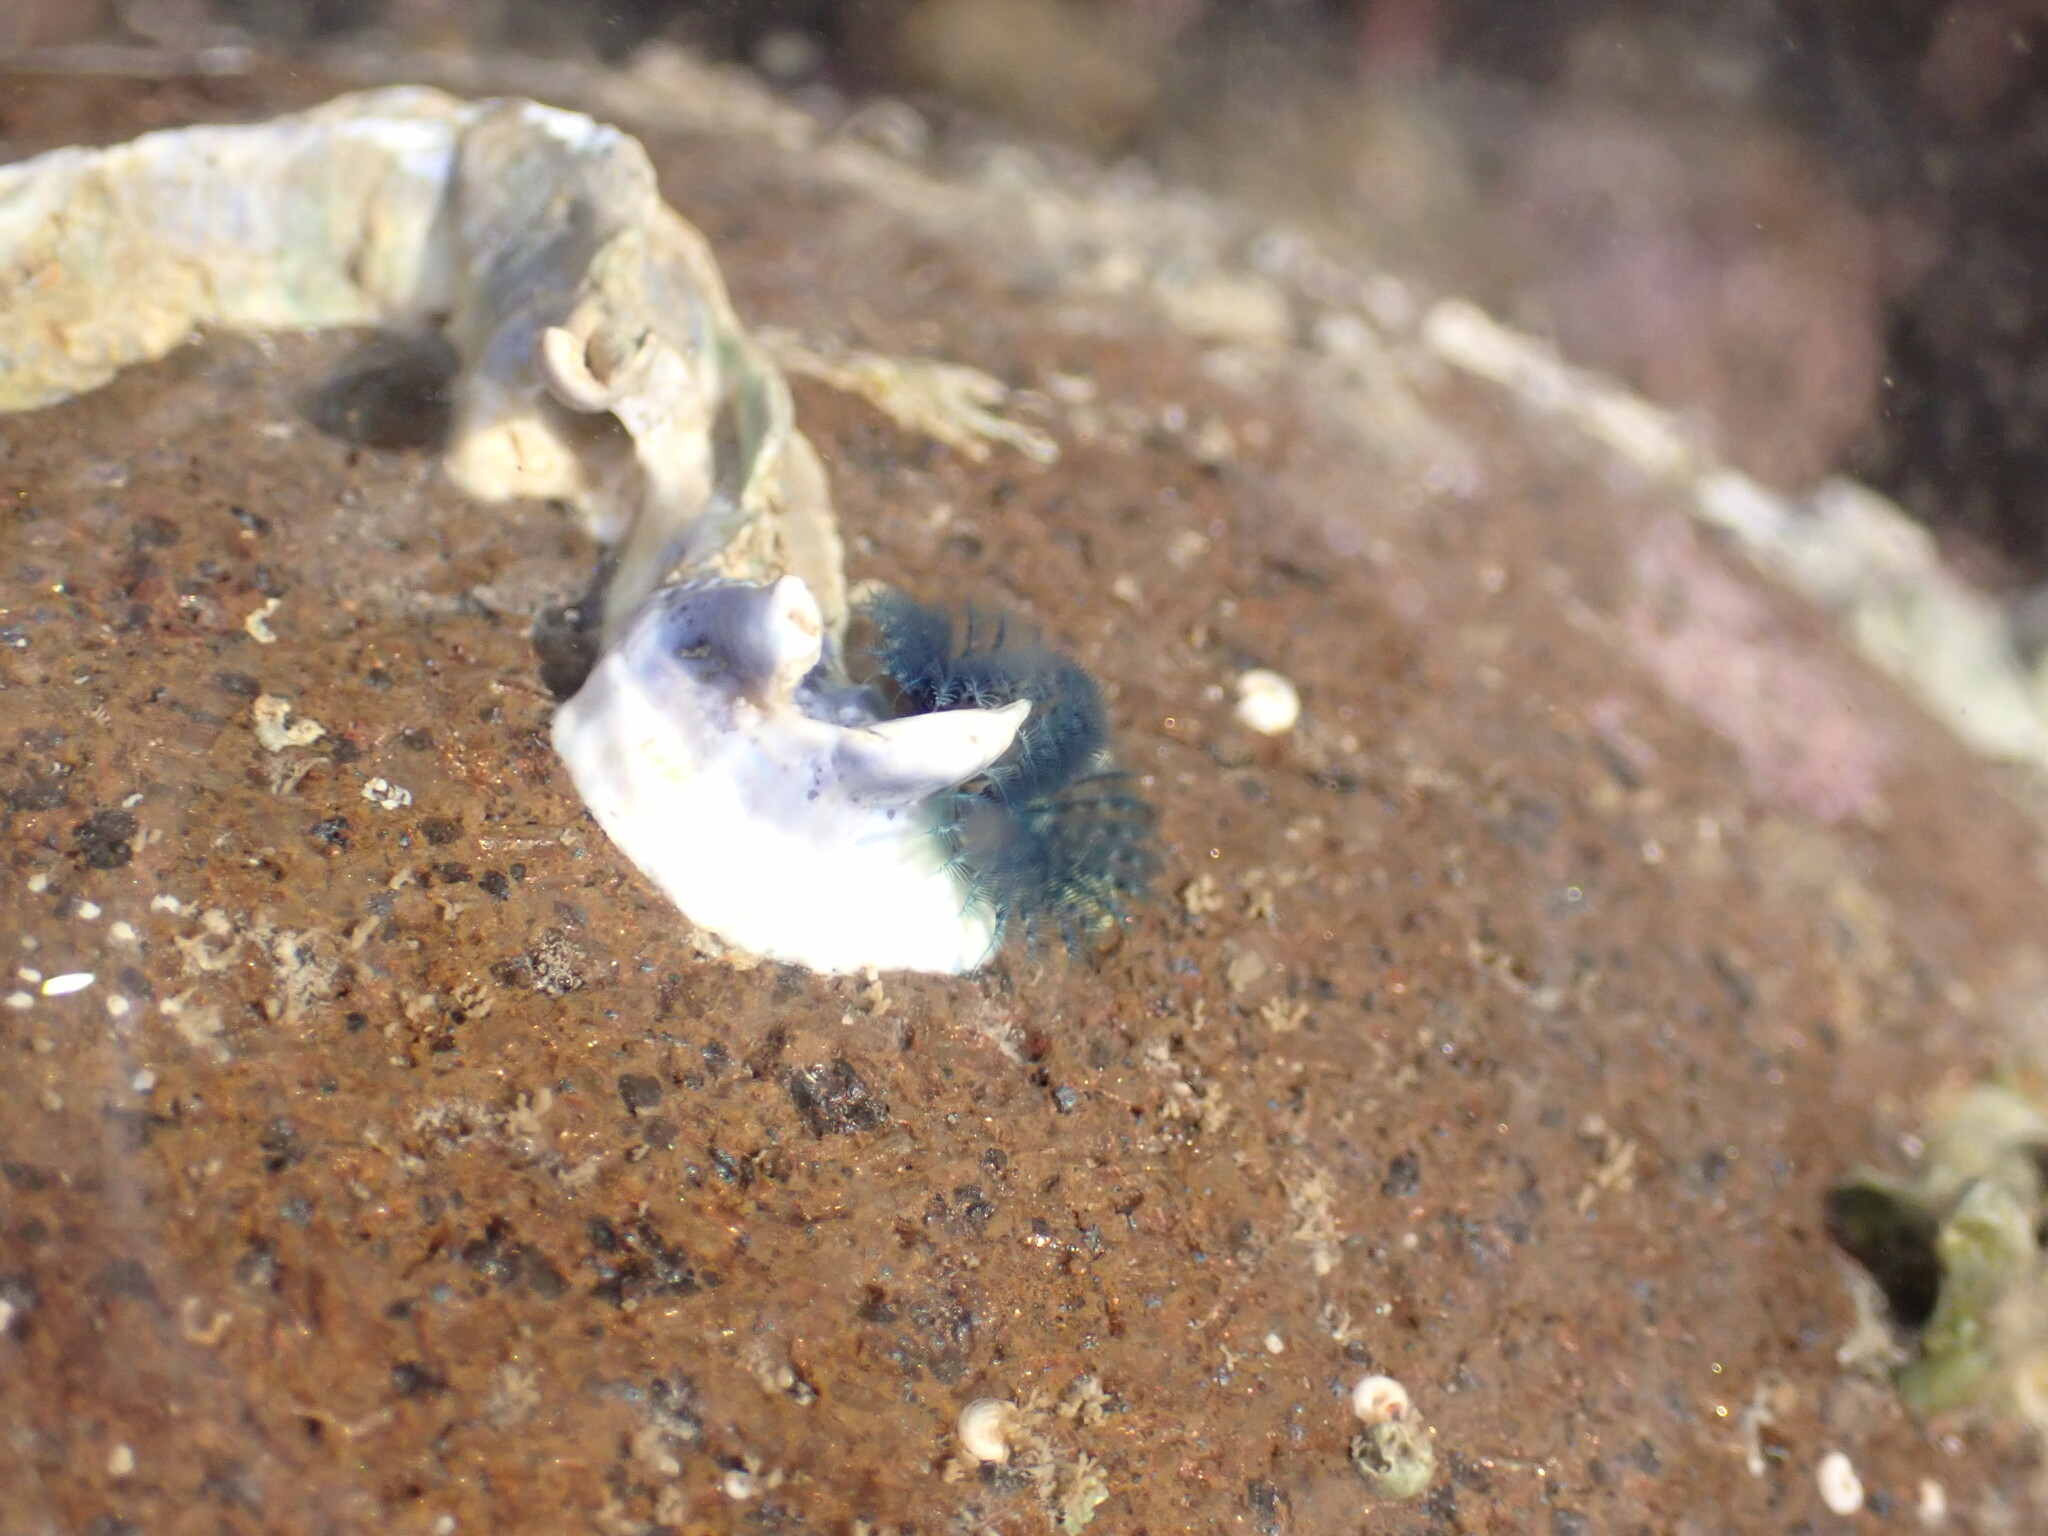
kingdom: Animalia
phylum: Annelida
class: Polychaeta
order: Sabellida
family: Serpulidae
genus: Spirobranchus
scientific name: Spirobranchus cariniferus
